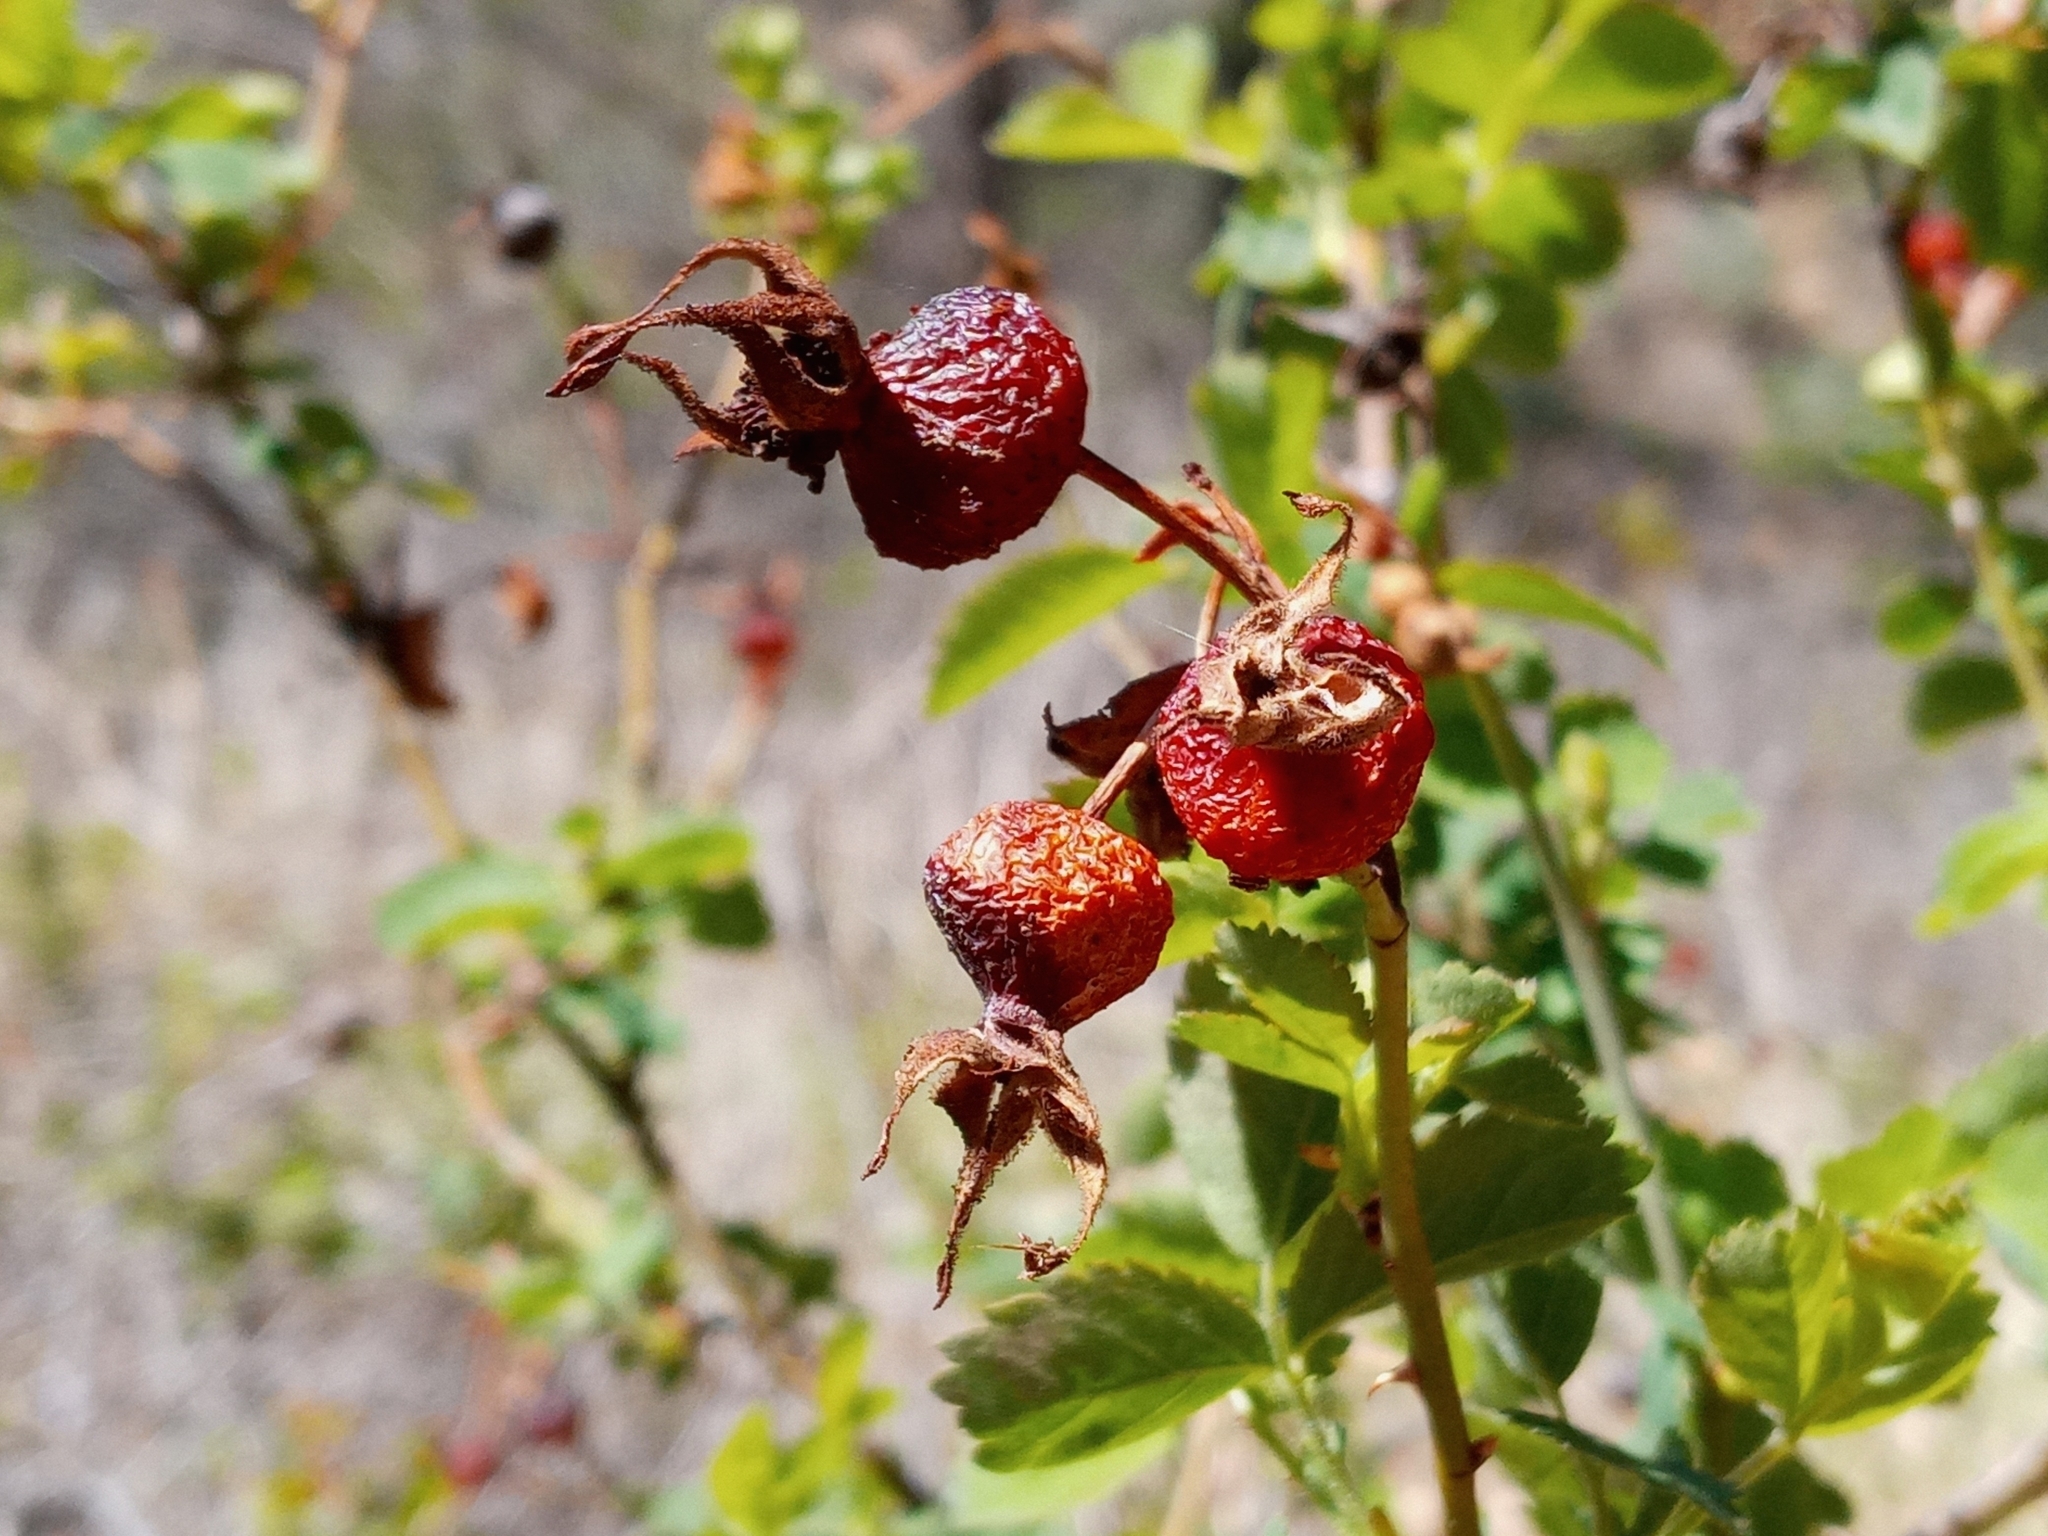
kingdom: Plantae
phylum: Tracheophyta
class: Magnoliopsida
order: Rosales
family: Rosaceae
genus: Rosa
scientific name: Rosa californica
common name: California rose
